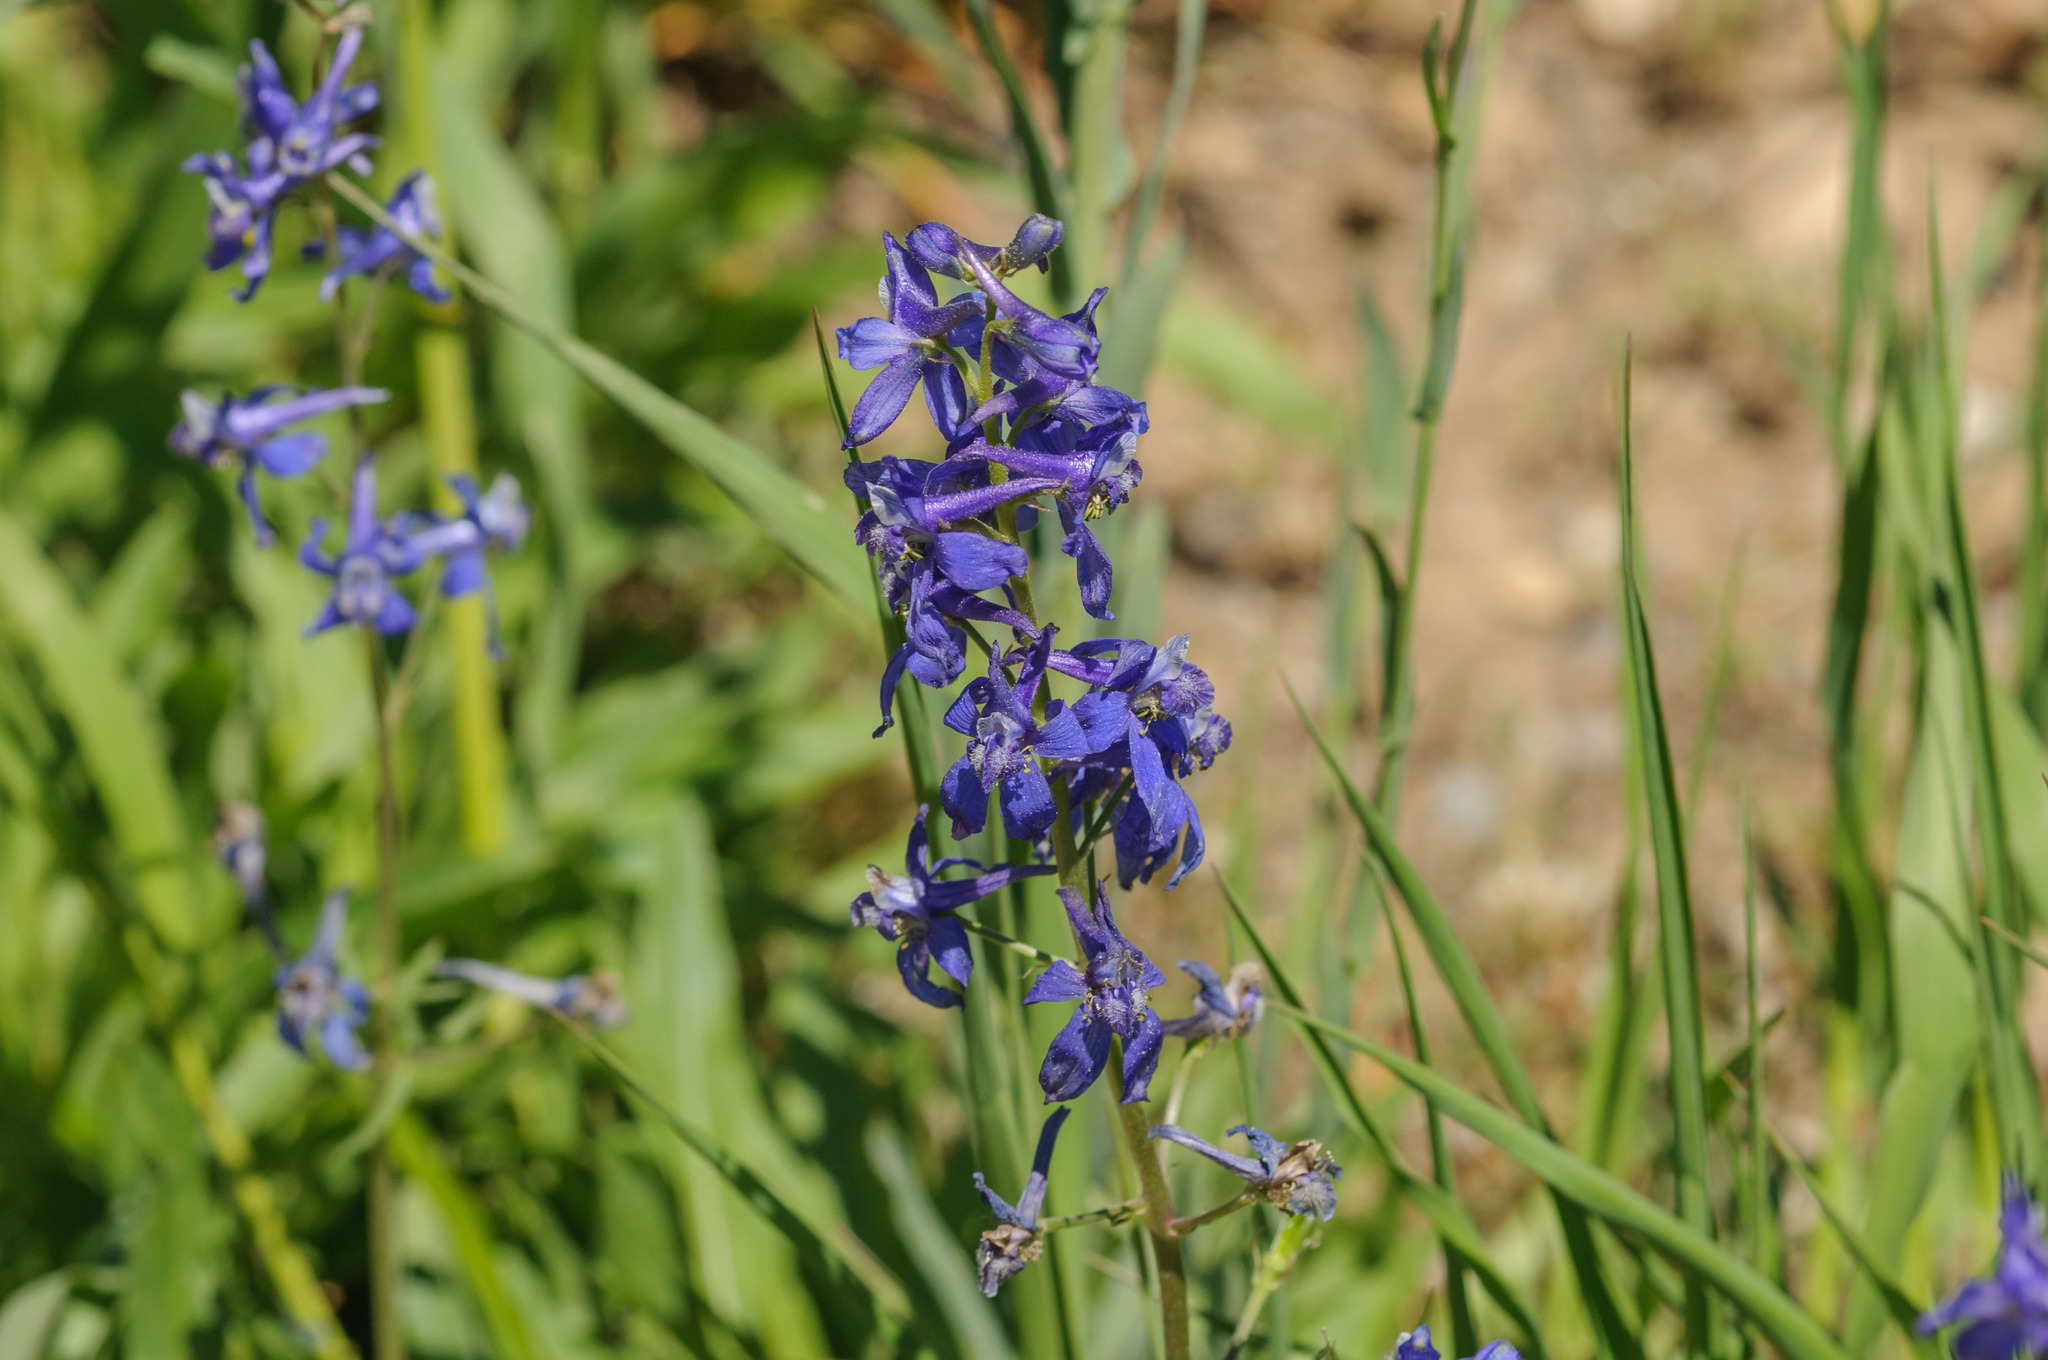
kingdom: Plantae
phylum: Tracheophyta
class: Magnoliopsida
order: Ranunculales
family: Ranunculaceae
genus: Delphinium
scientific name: Delphinium nuttallianum
